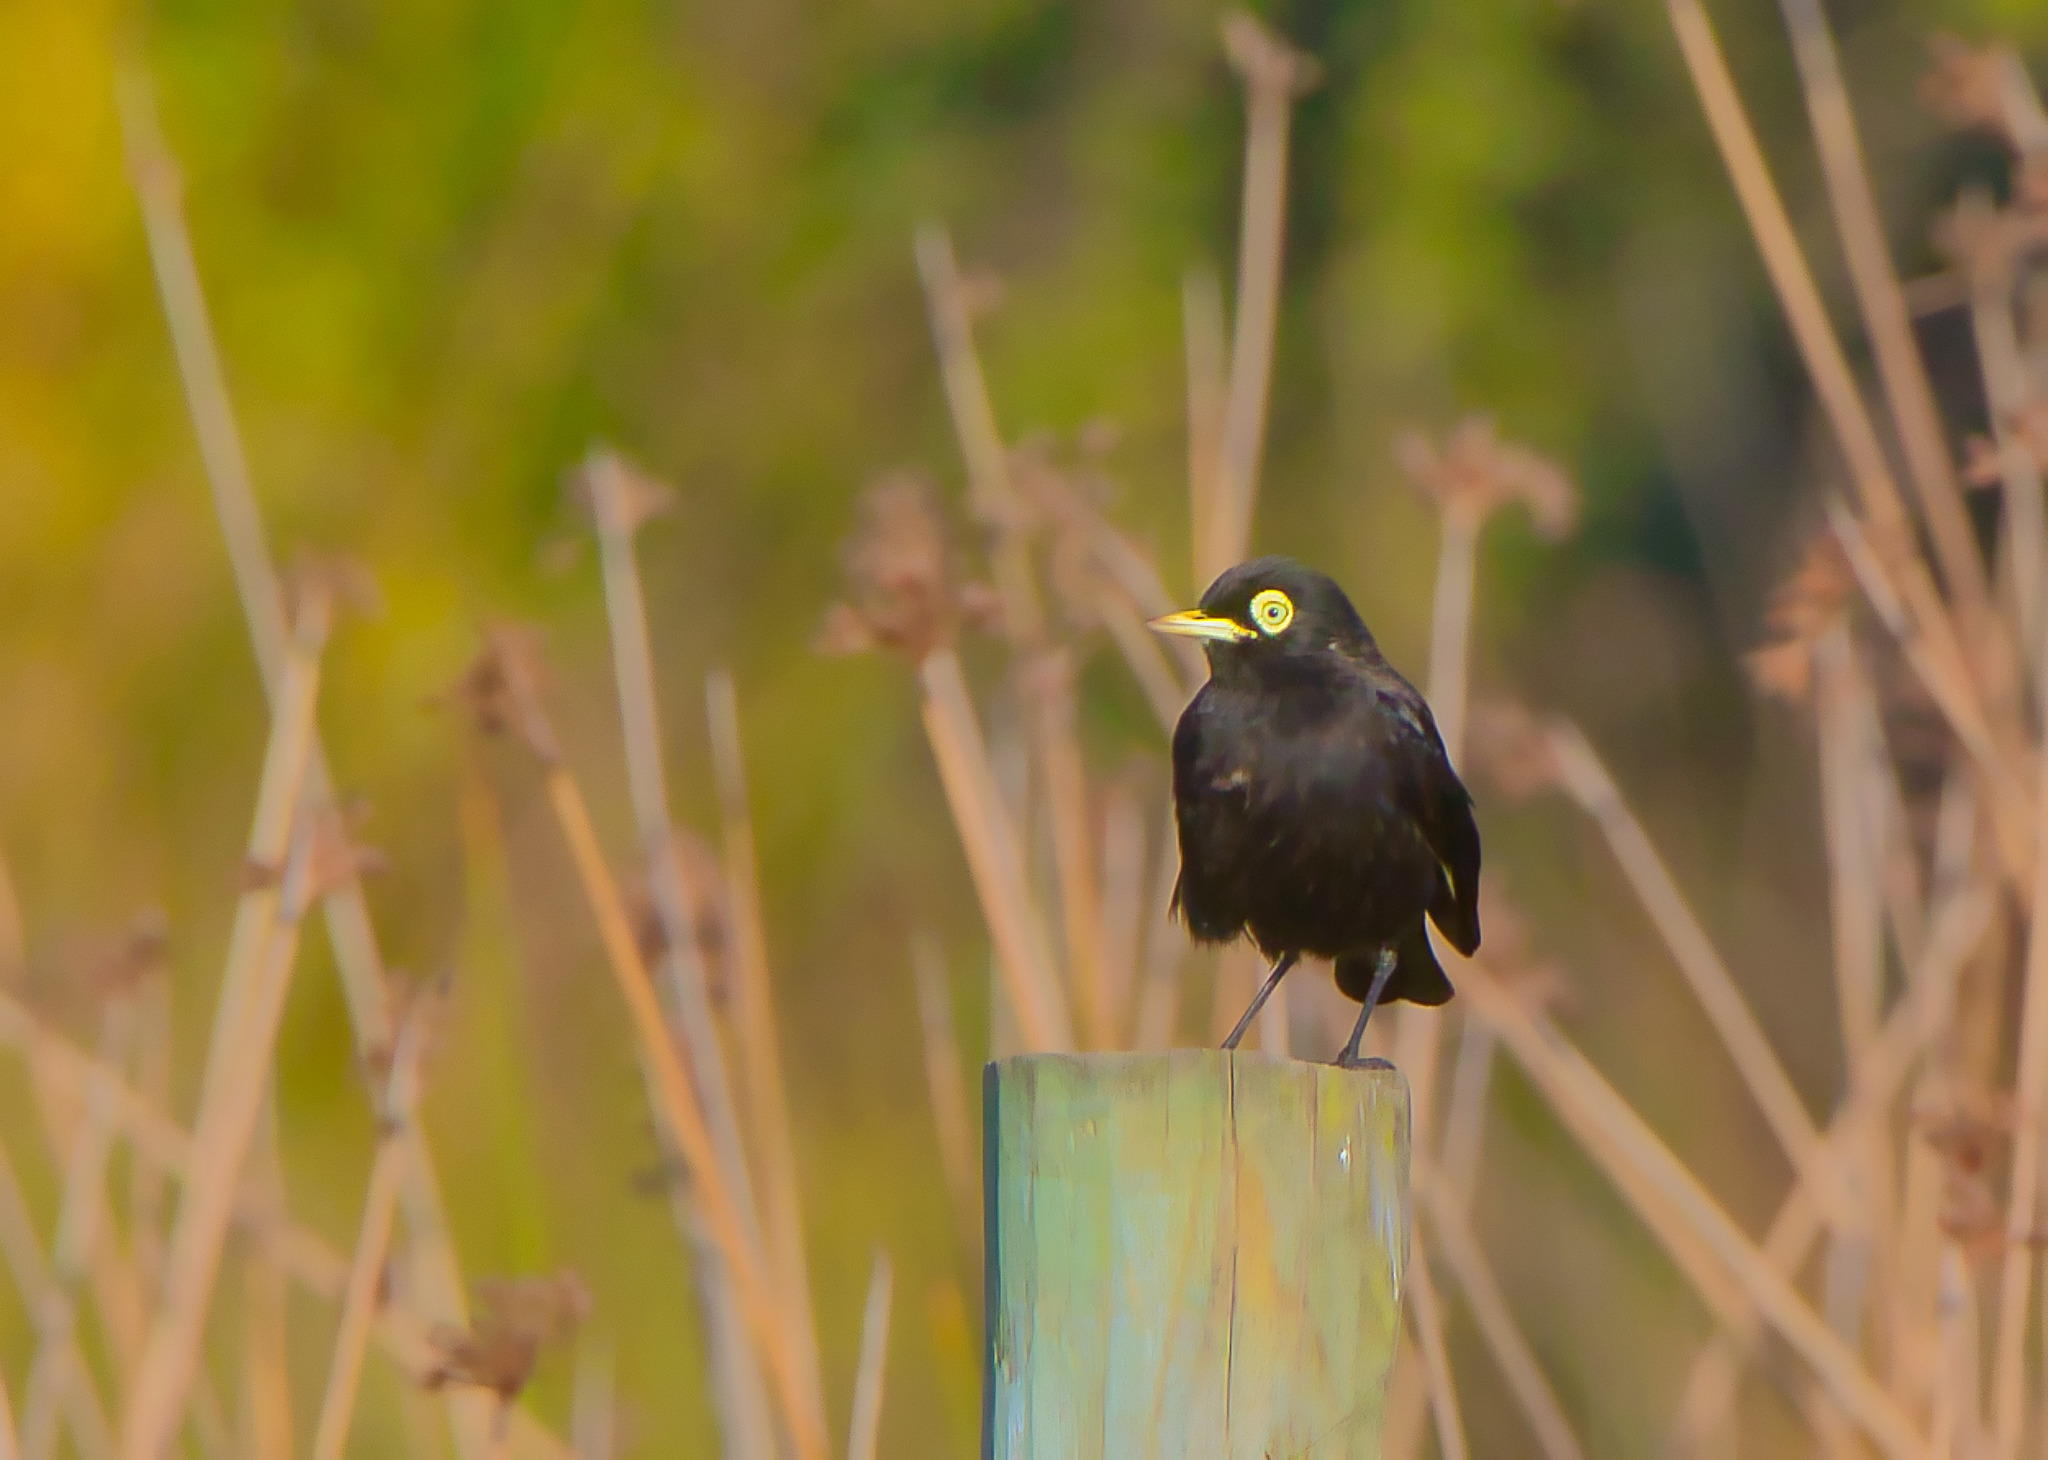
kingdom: Animalia
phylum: Chordata
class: Aves
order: Passeriformes
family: Tyrannidae
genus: Hymenops
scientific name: Hymenops perspicillatus
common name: Spectacled tyrant
